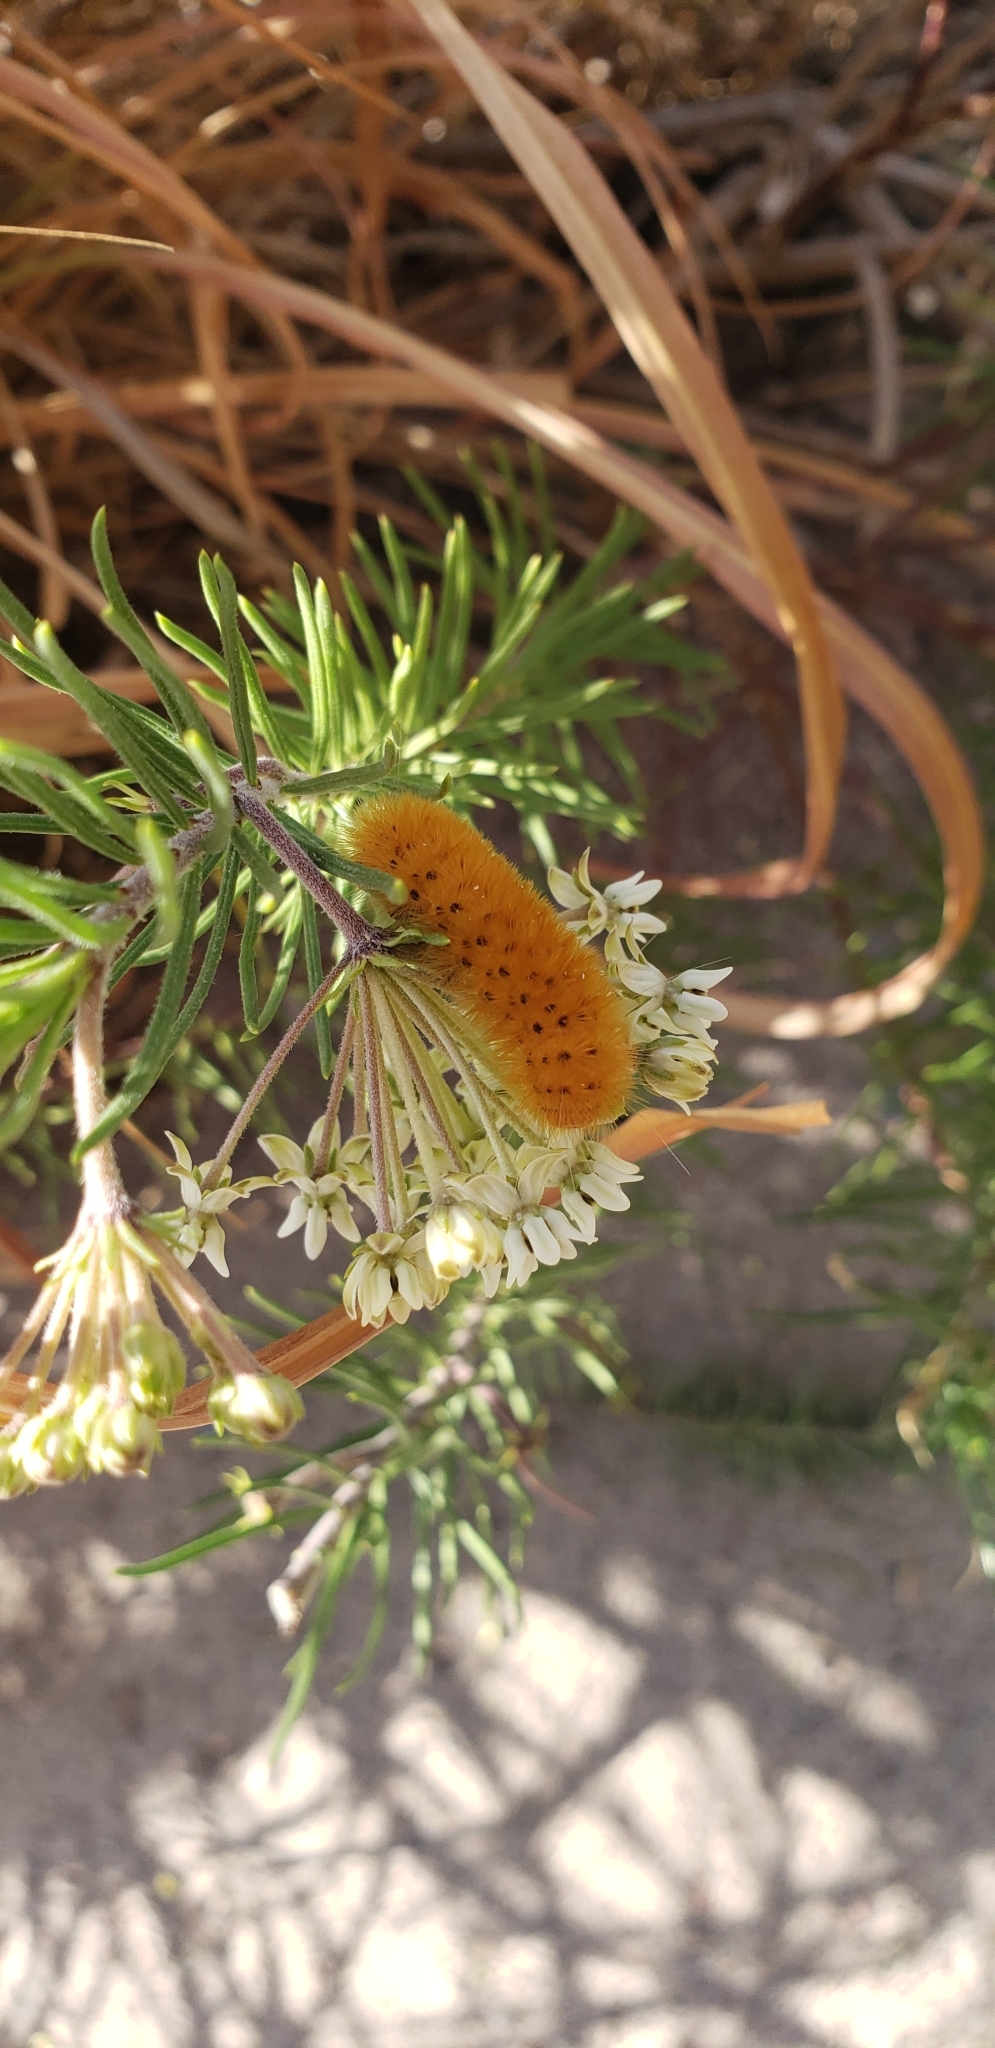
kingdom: Animalia
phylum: Arthropoda
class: Insecta
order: Lepidoptera
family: Erebidae
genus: Lerina
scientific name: Lerina incarnata
